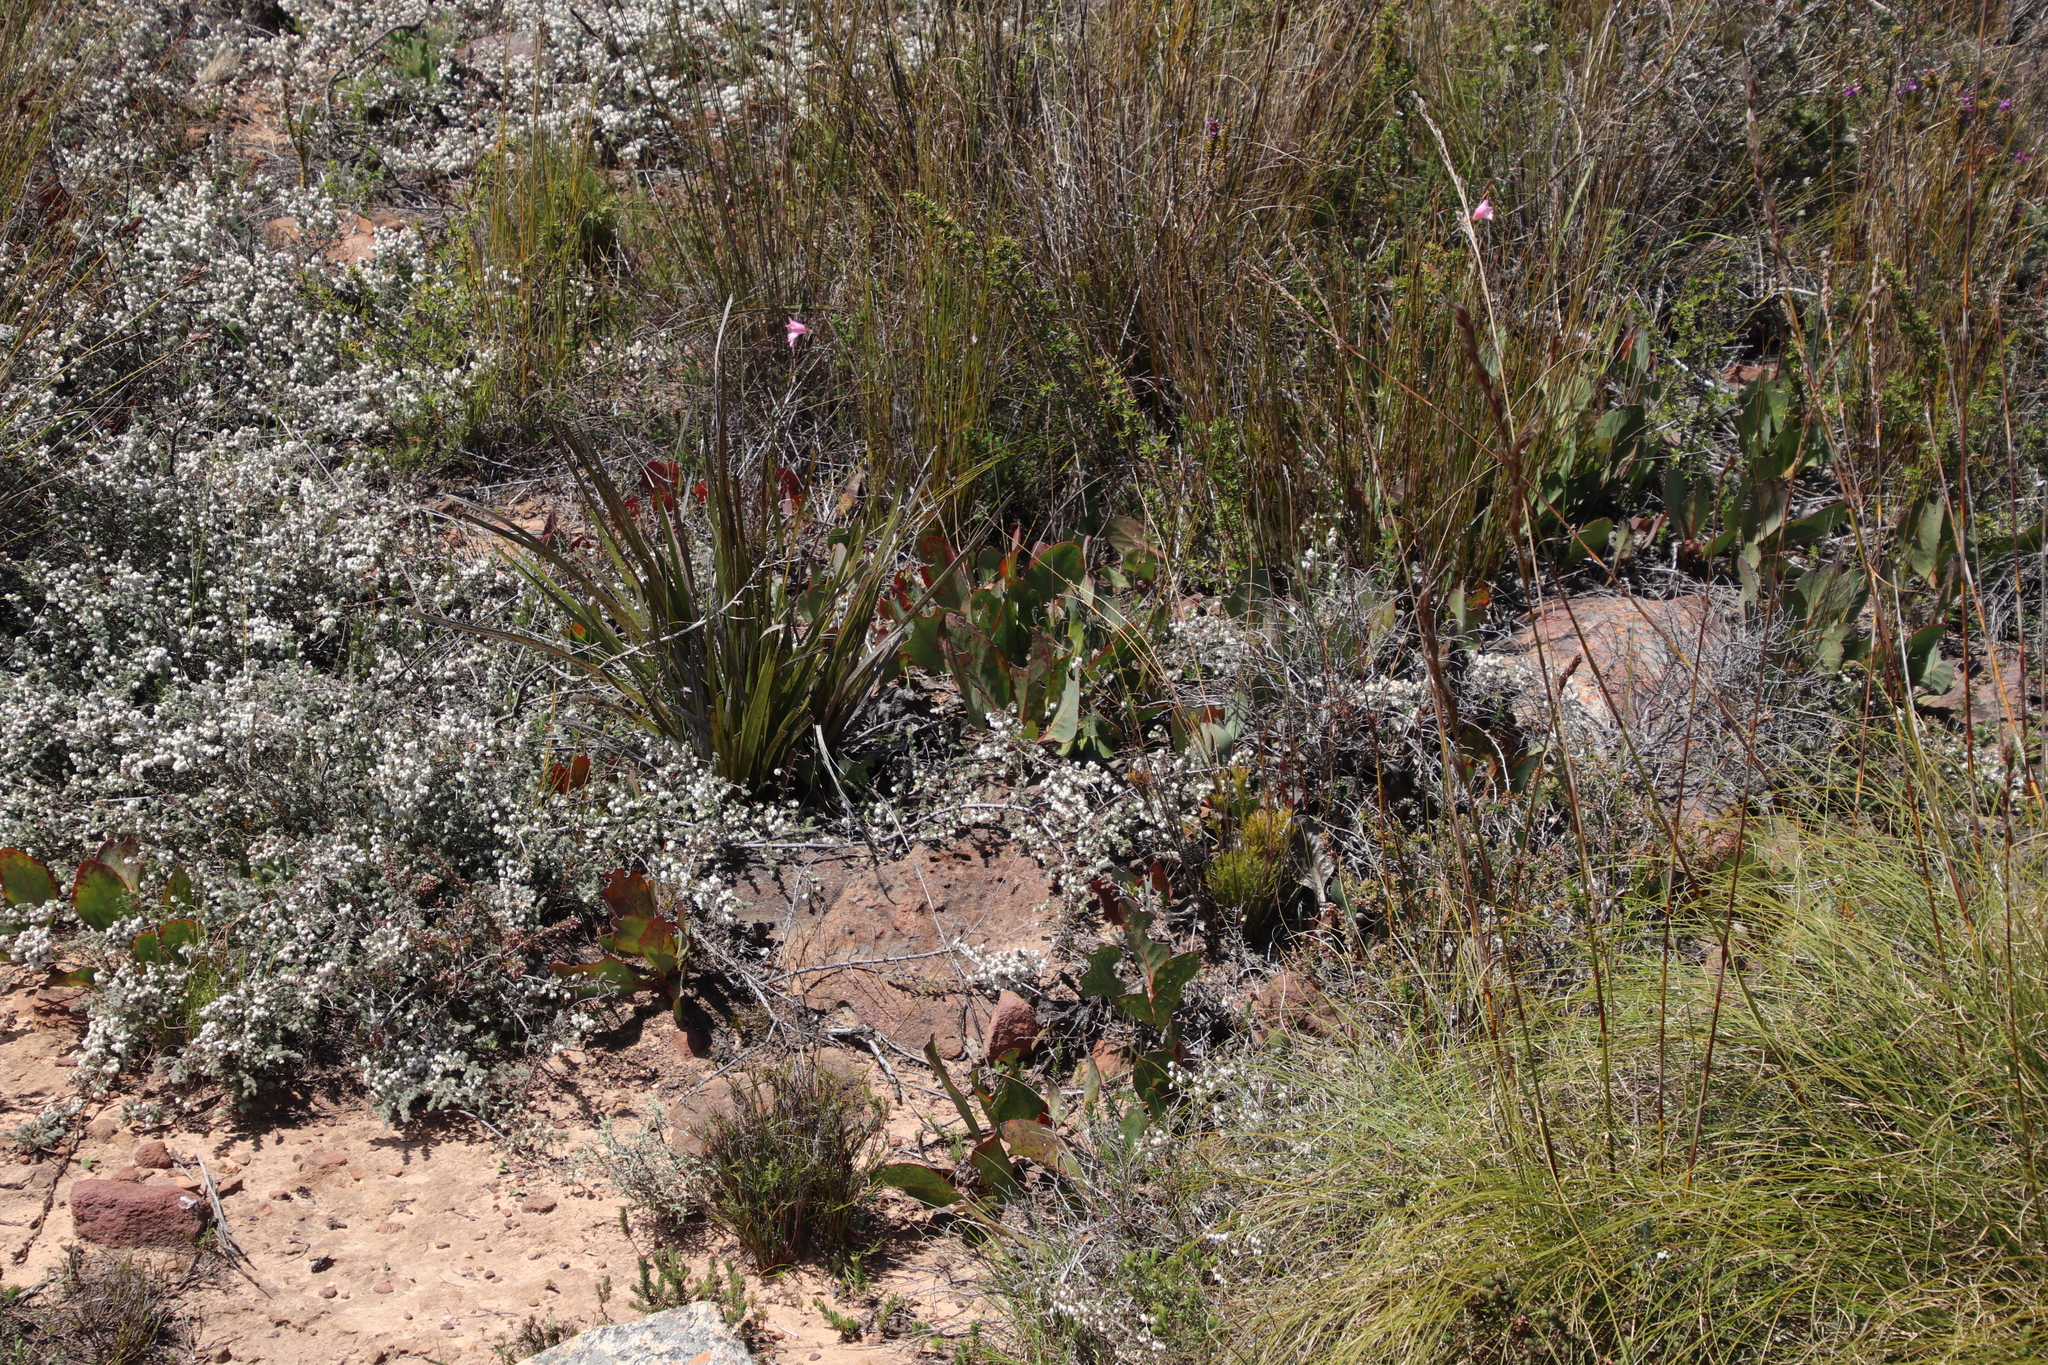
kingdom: Plantae
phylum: Tracheophyta
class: Magnoliopsida
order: Proteales
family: Proteaceae
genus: Protea
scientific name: Protea acaulos
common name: Common ground sugarbush
